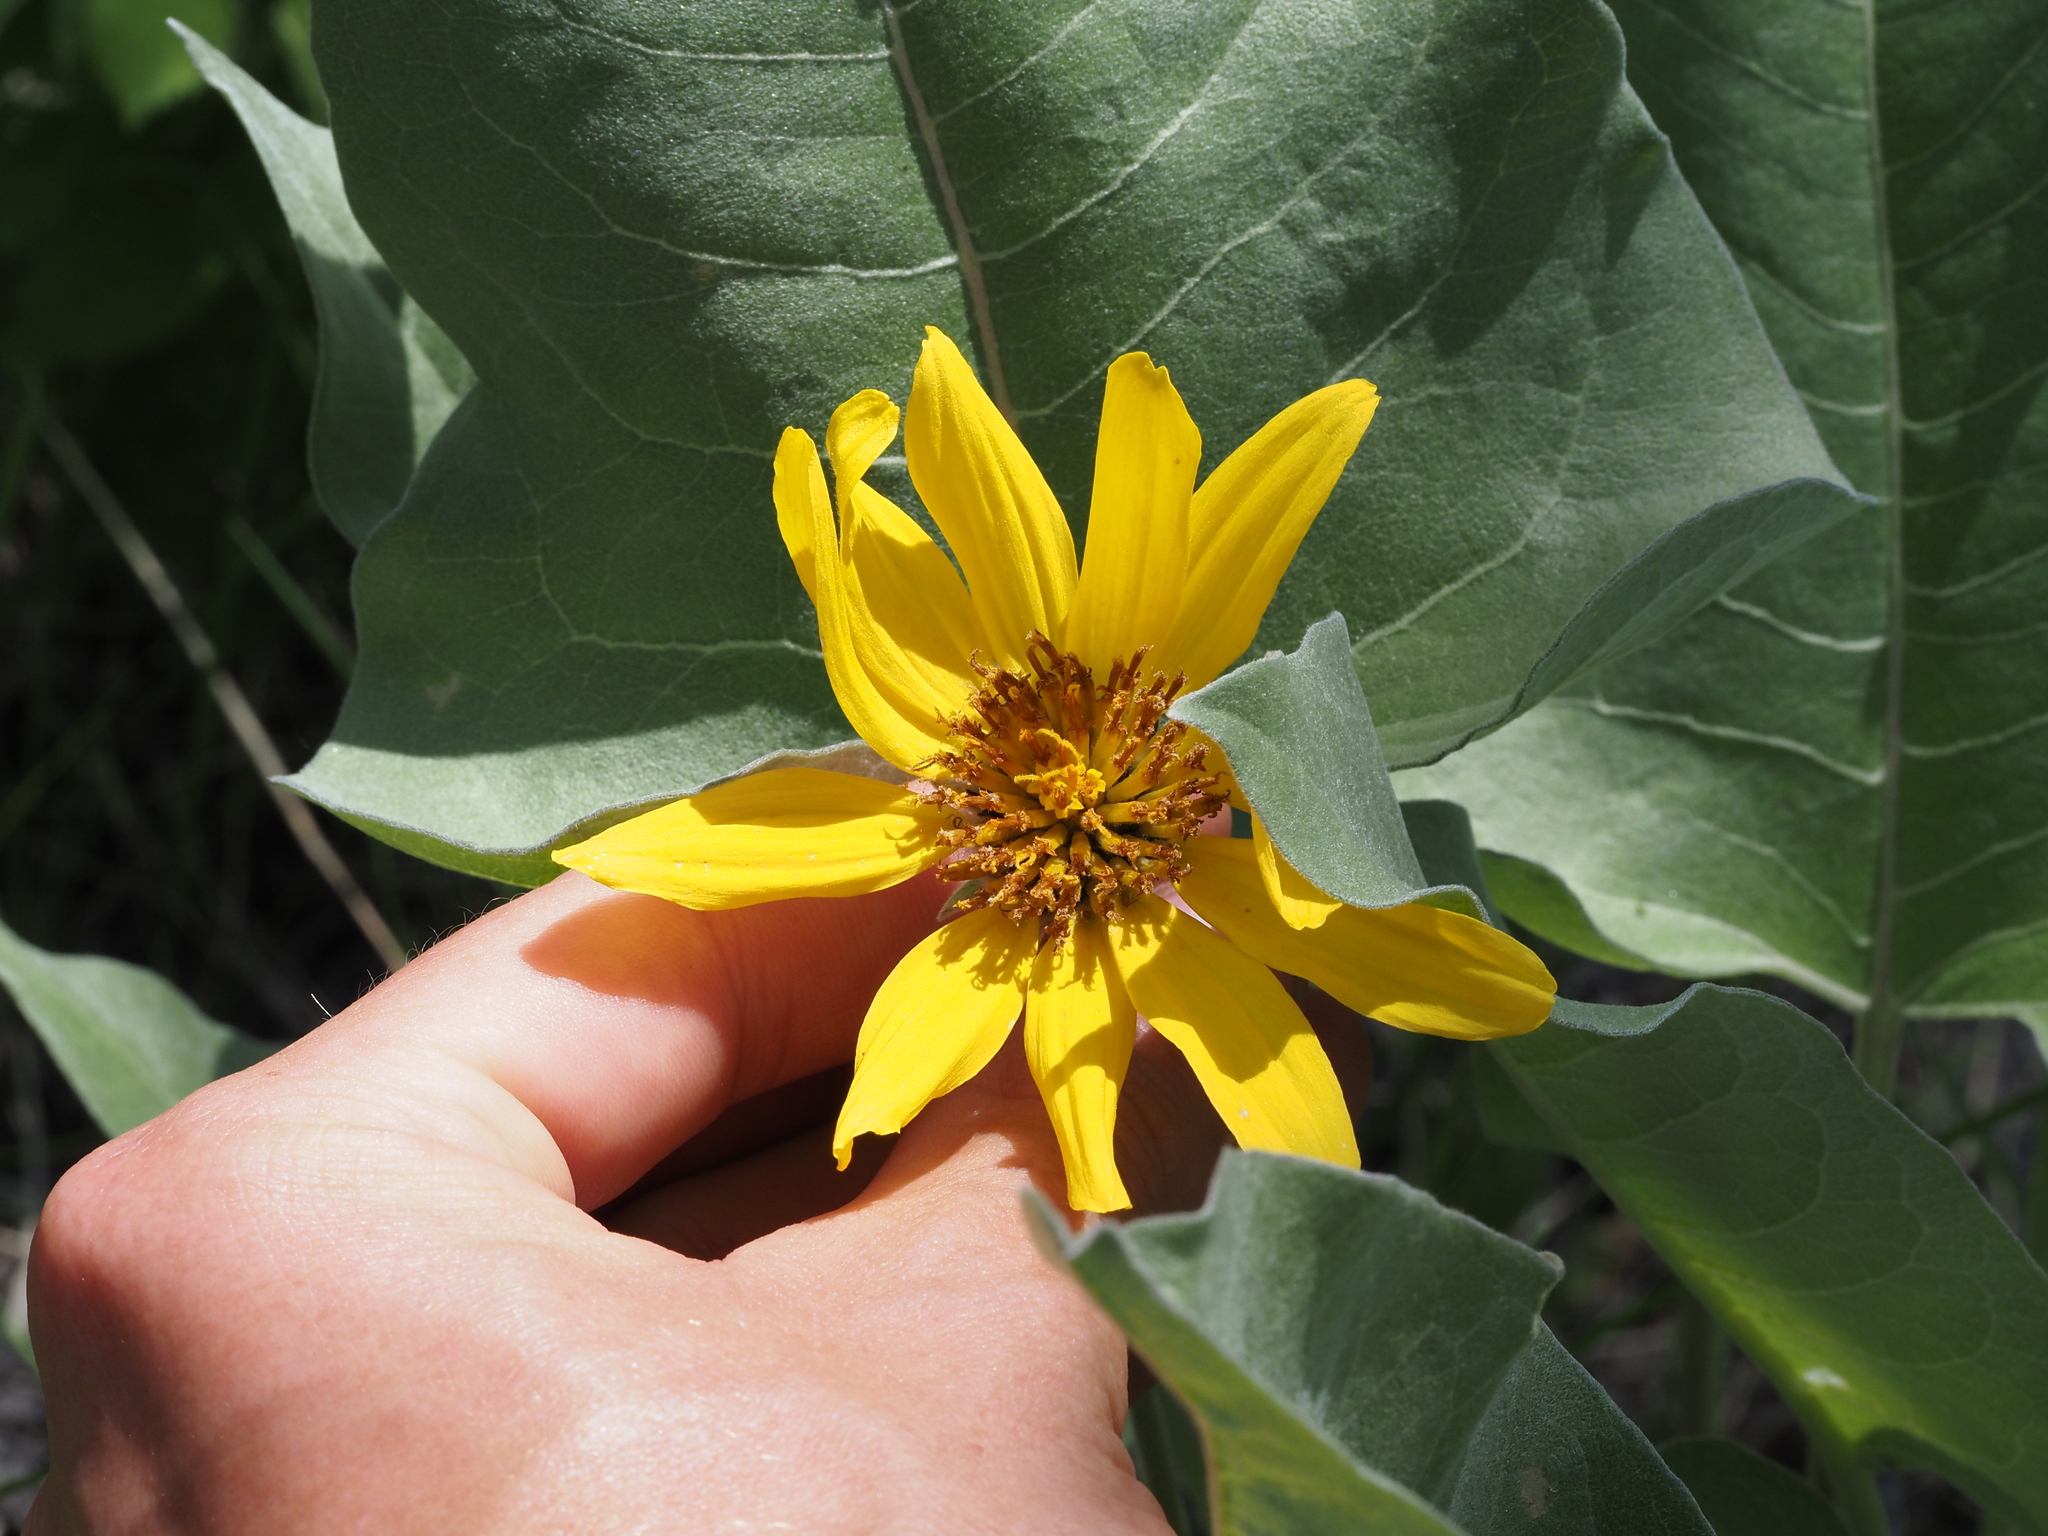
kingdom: Plantae
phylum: Tracheophyta
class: Magnoliopsida
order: Asterales
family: Asteraceae
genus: Wyethia
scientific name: Wyethia sagittata
